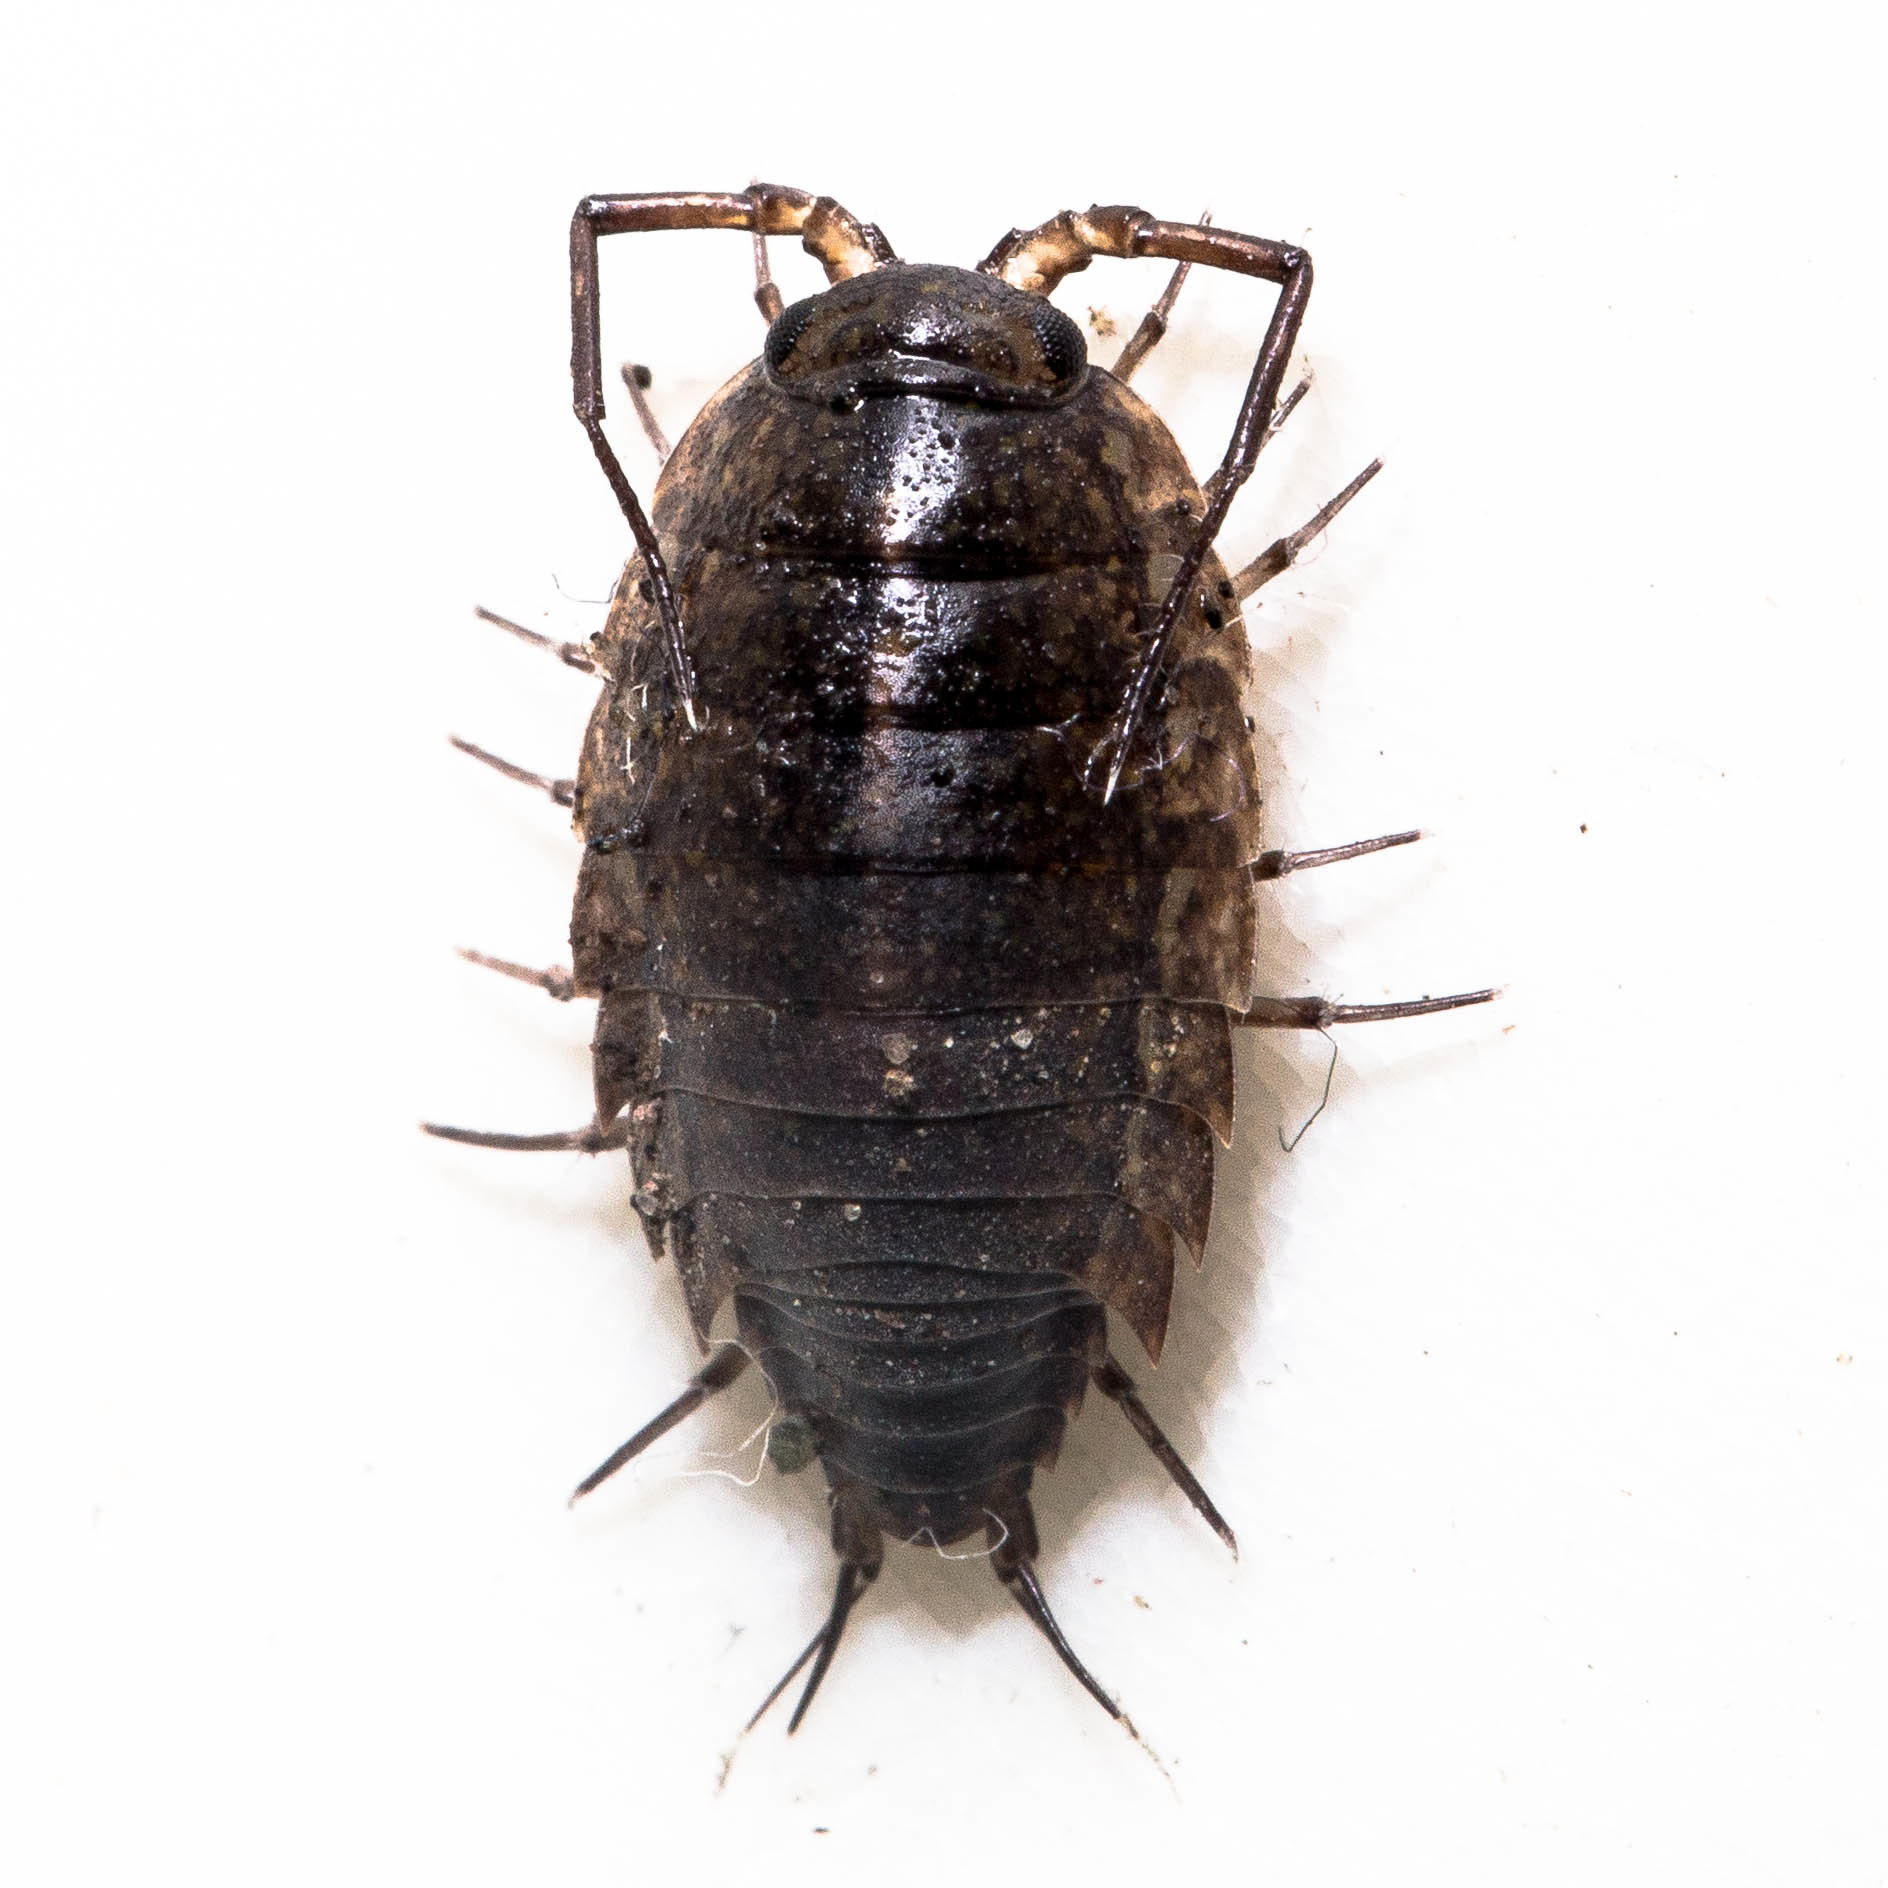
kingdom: Animalia
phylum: Arthropoda
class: Malacostraca
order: Isopoda
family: Ligiidae
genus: Ligidium
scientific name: Ligidium latum
